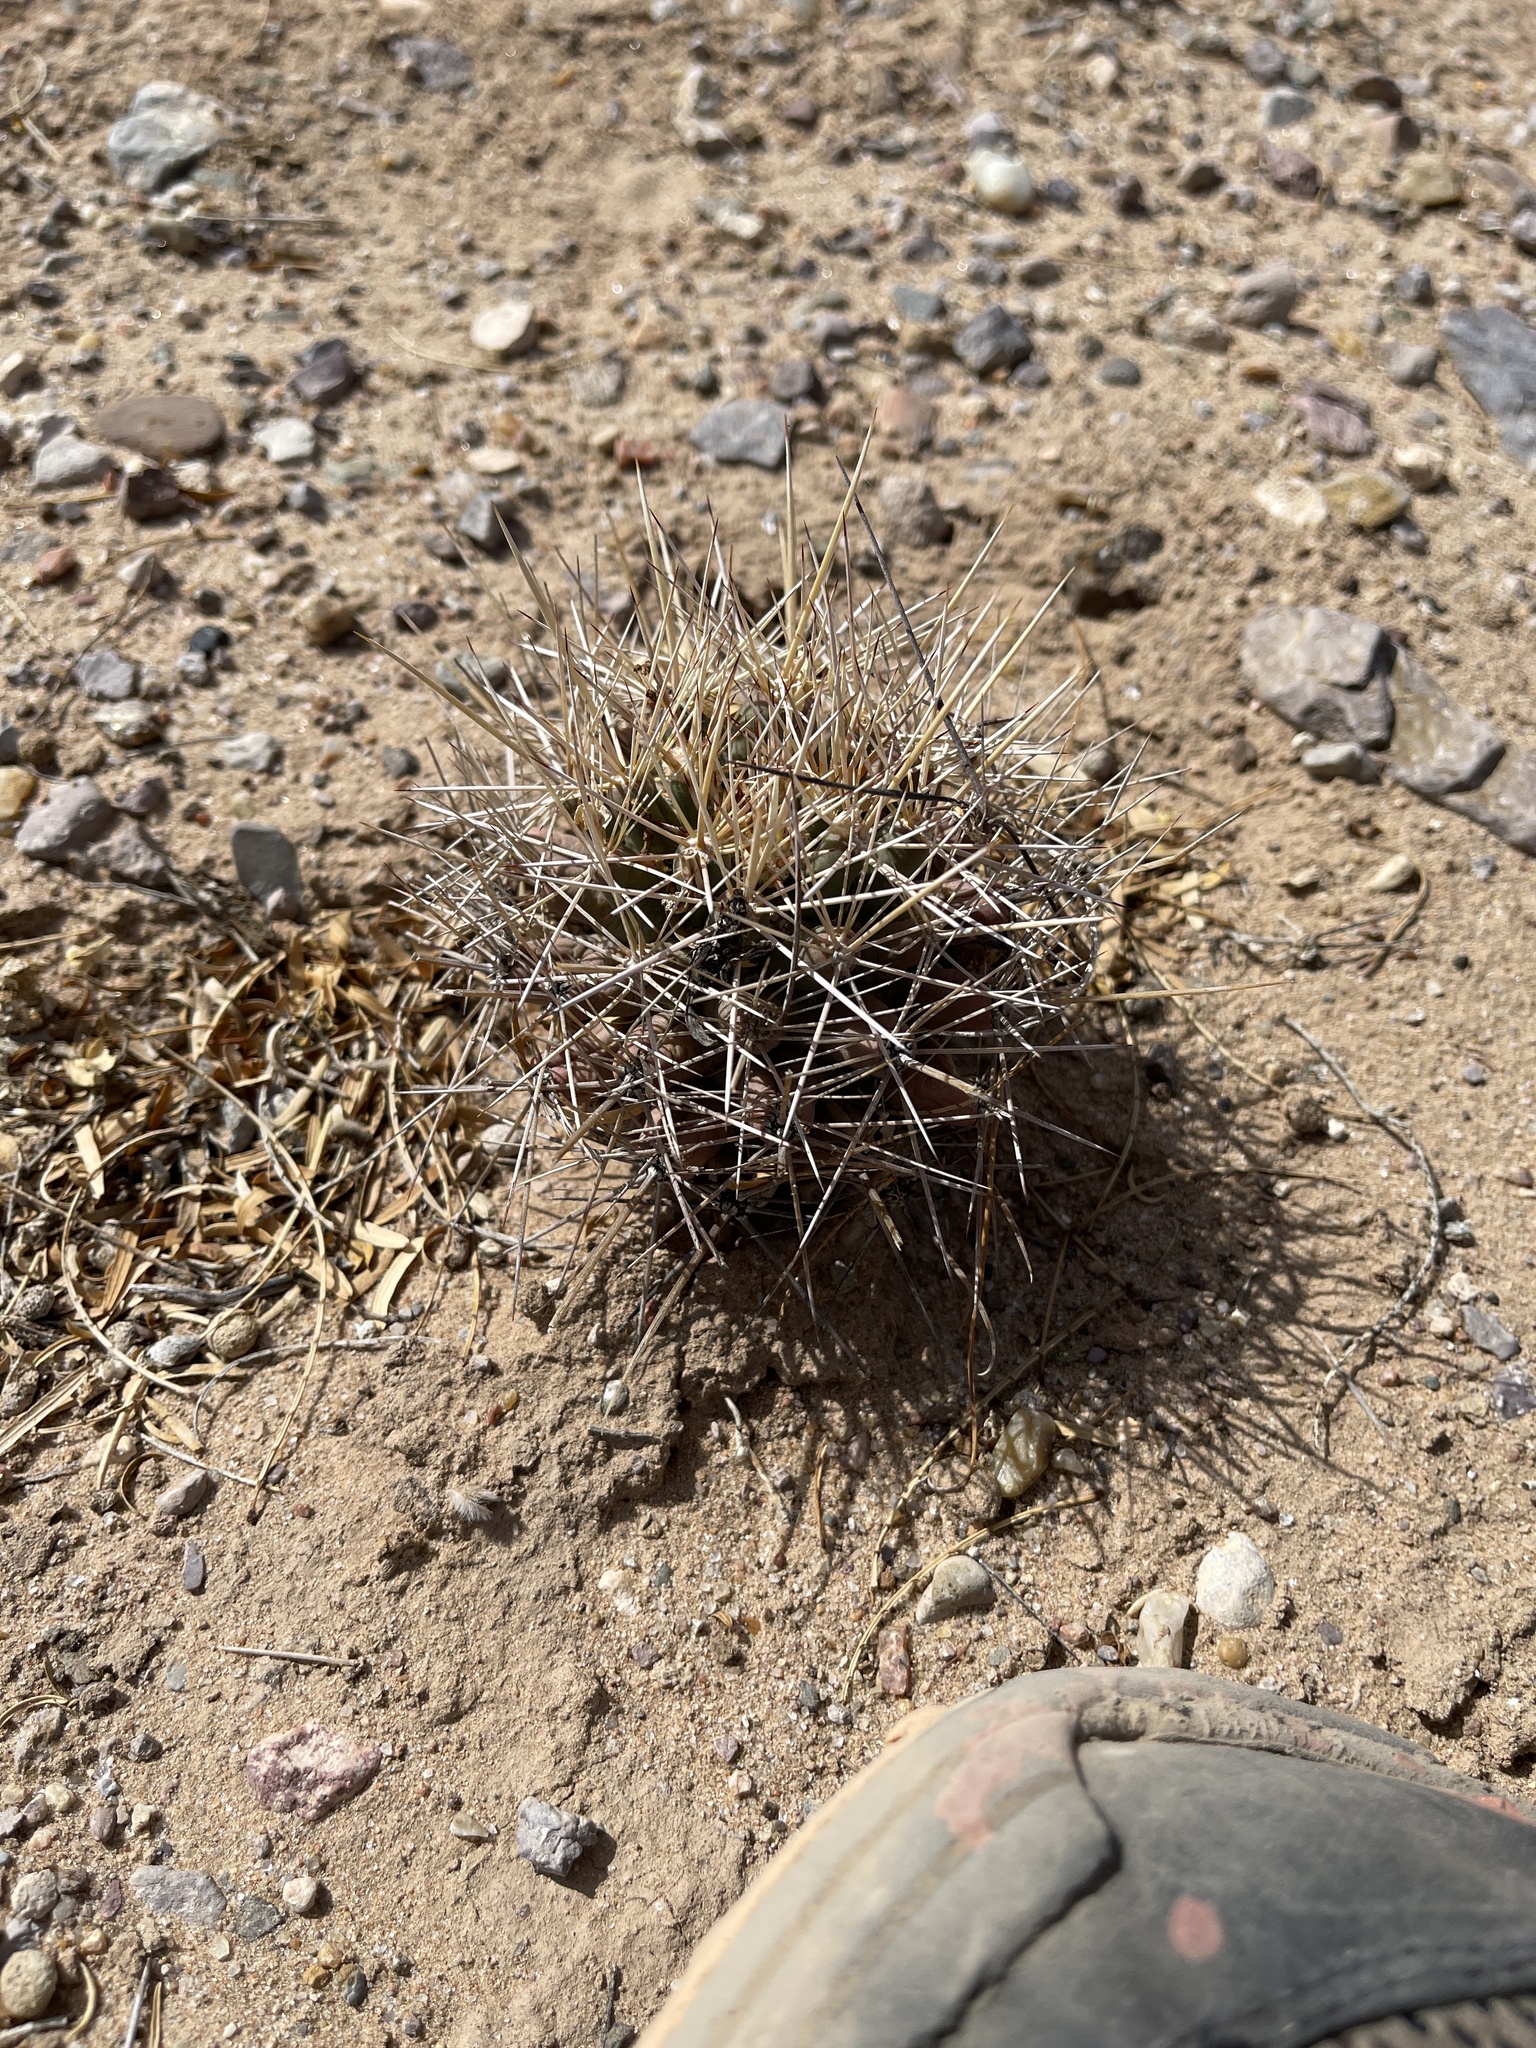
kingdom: Plantae
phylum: Tracheophyta
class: Magnoliopsida
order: Caryophyllales
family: Cactaceae
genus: Coryphantha
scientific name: Coryphantha robustispina
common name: Pima pineapple cactus
